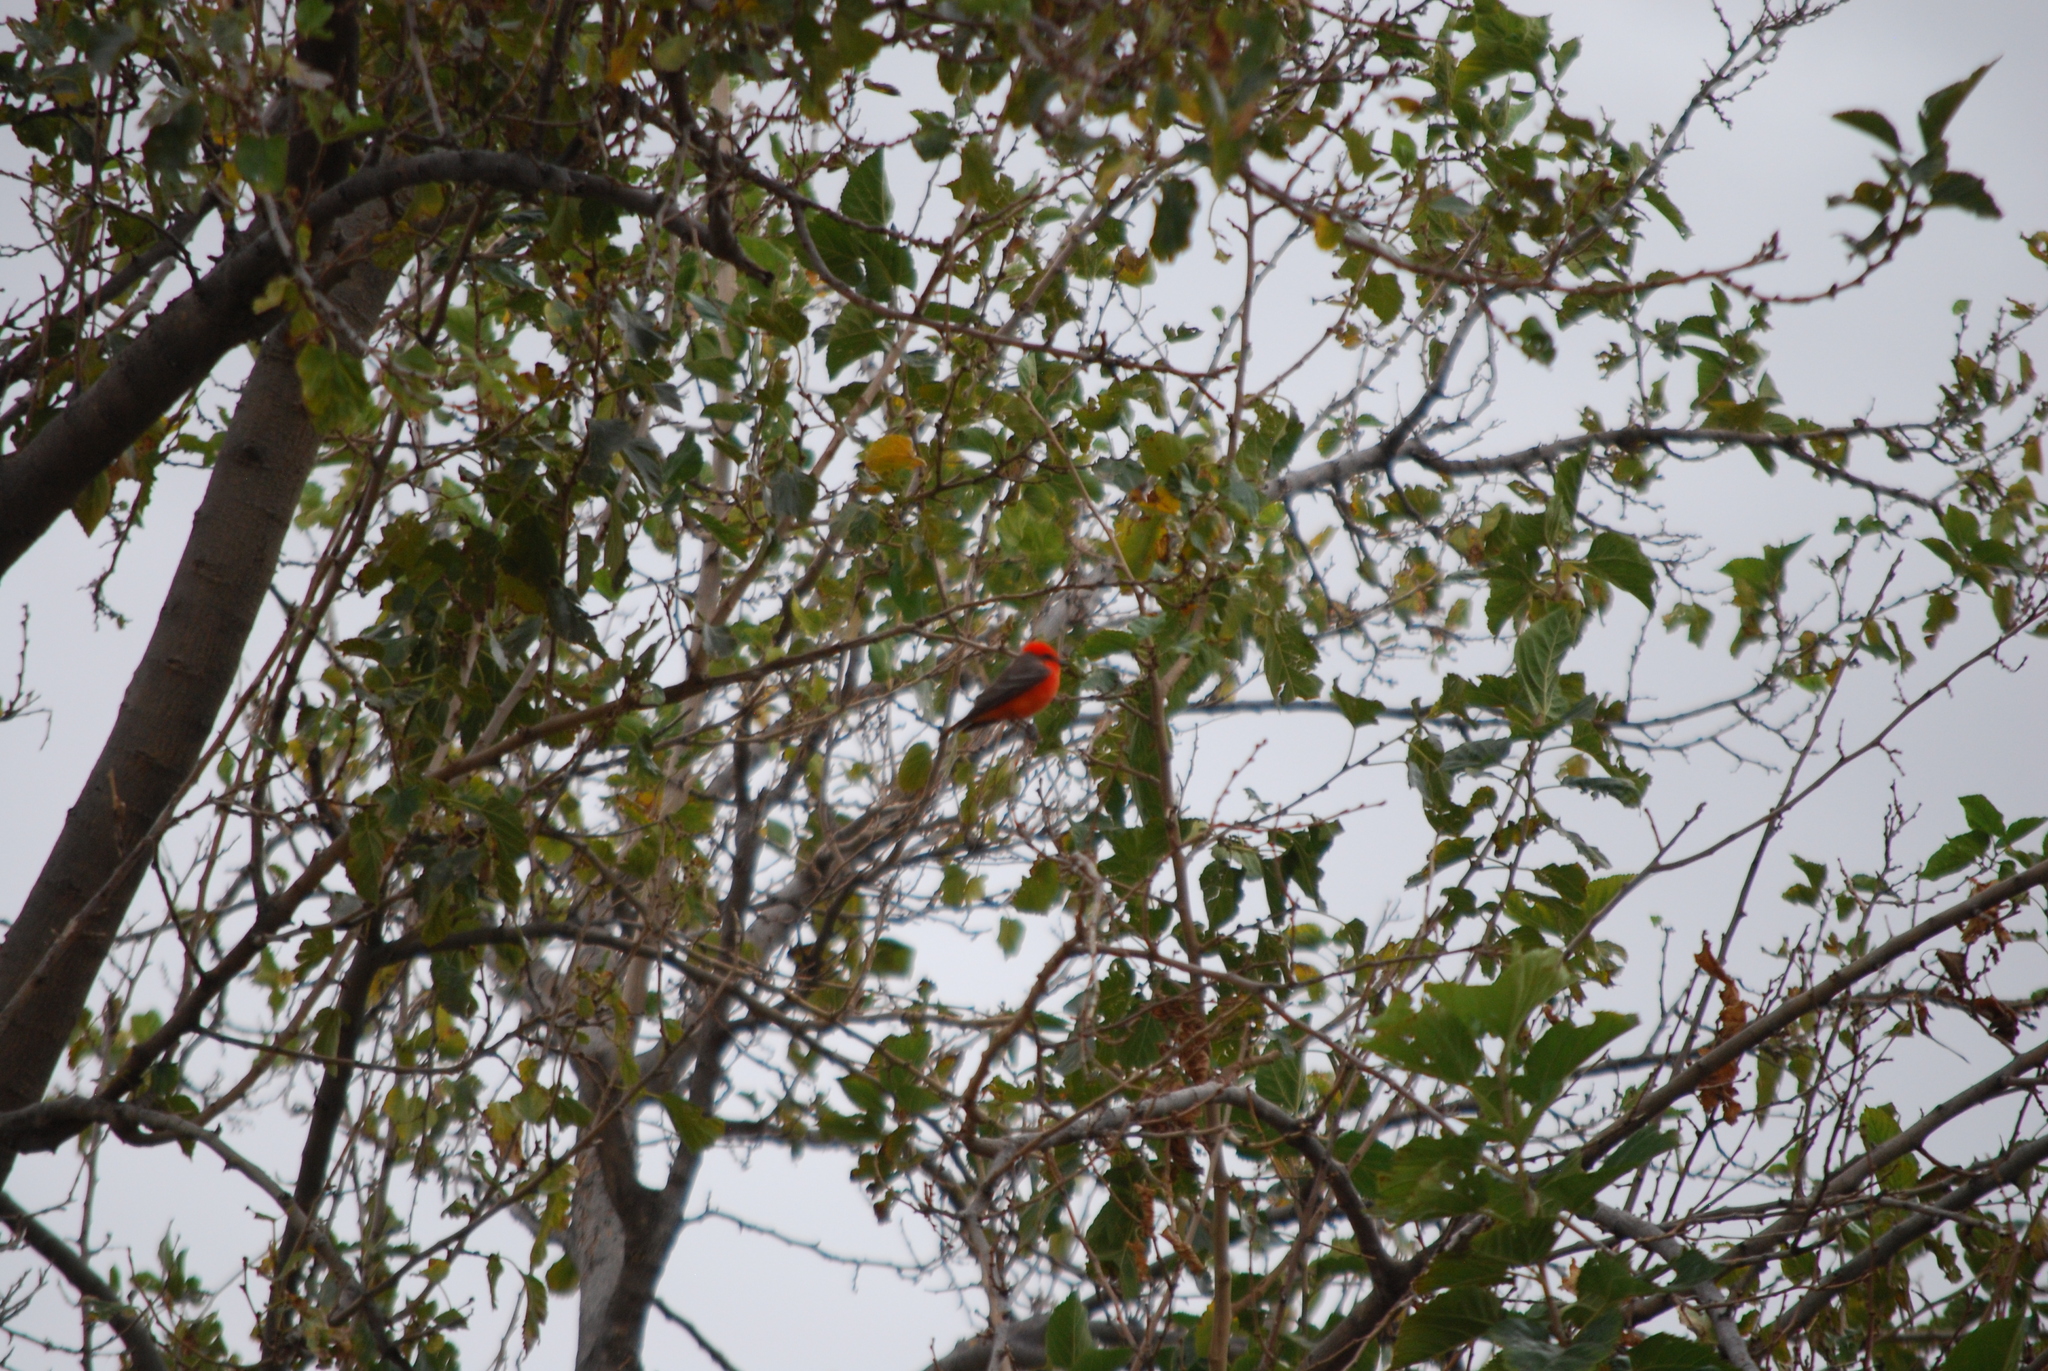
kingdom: Animalia
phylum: Chordata
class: Aves
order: Passeriformes
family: Tyrannidae
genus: Pyrocephalus
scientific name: Pyrocephalus rubinus
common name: Vermilion flycatcher
